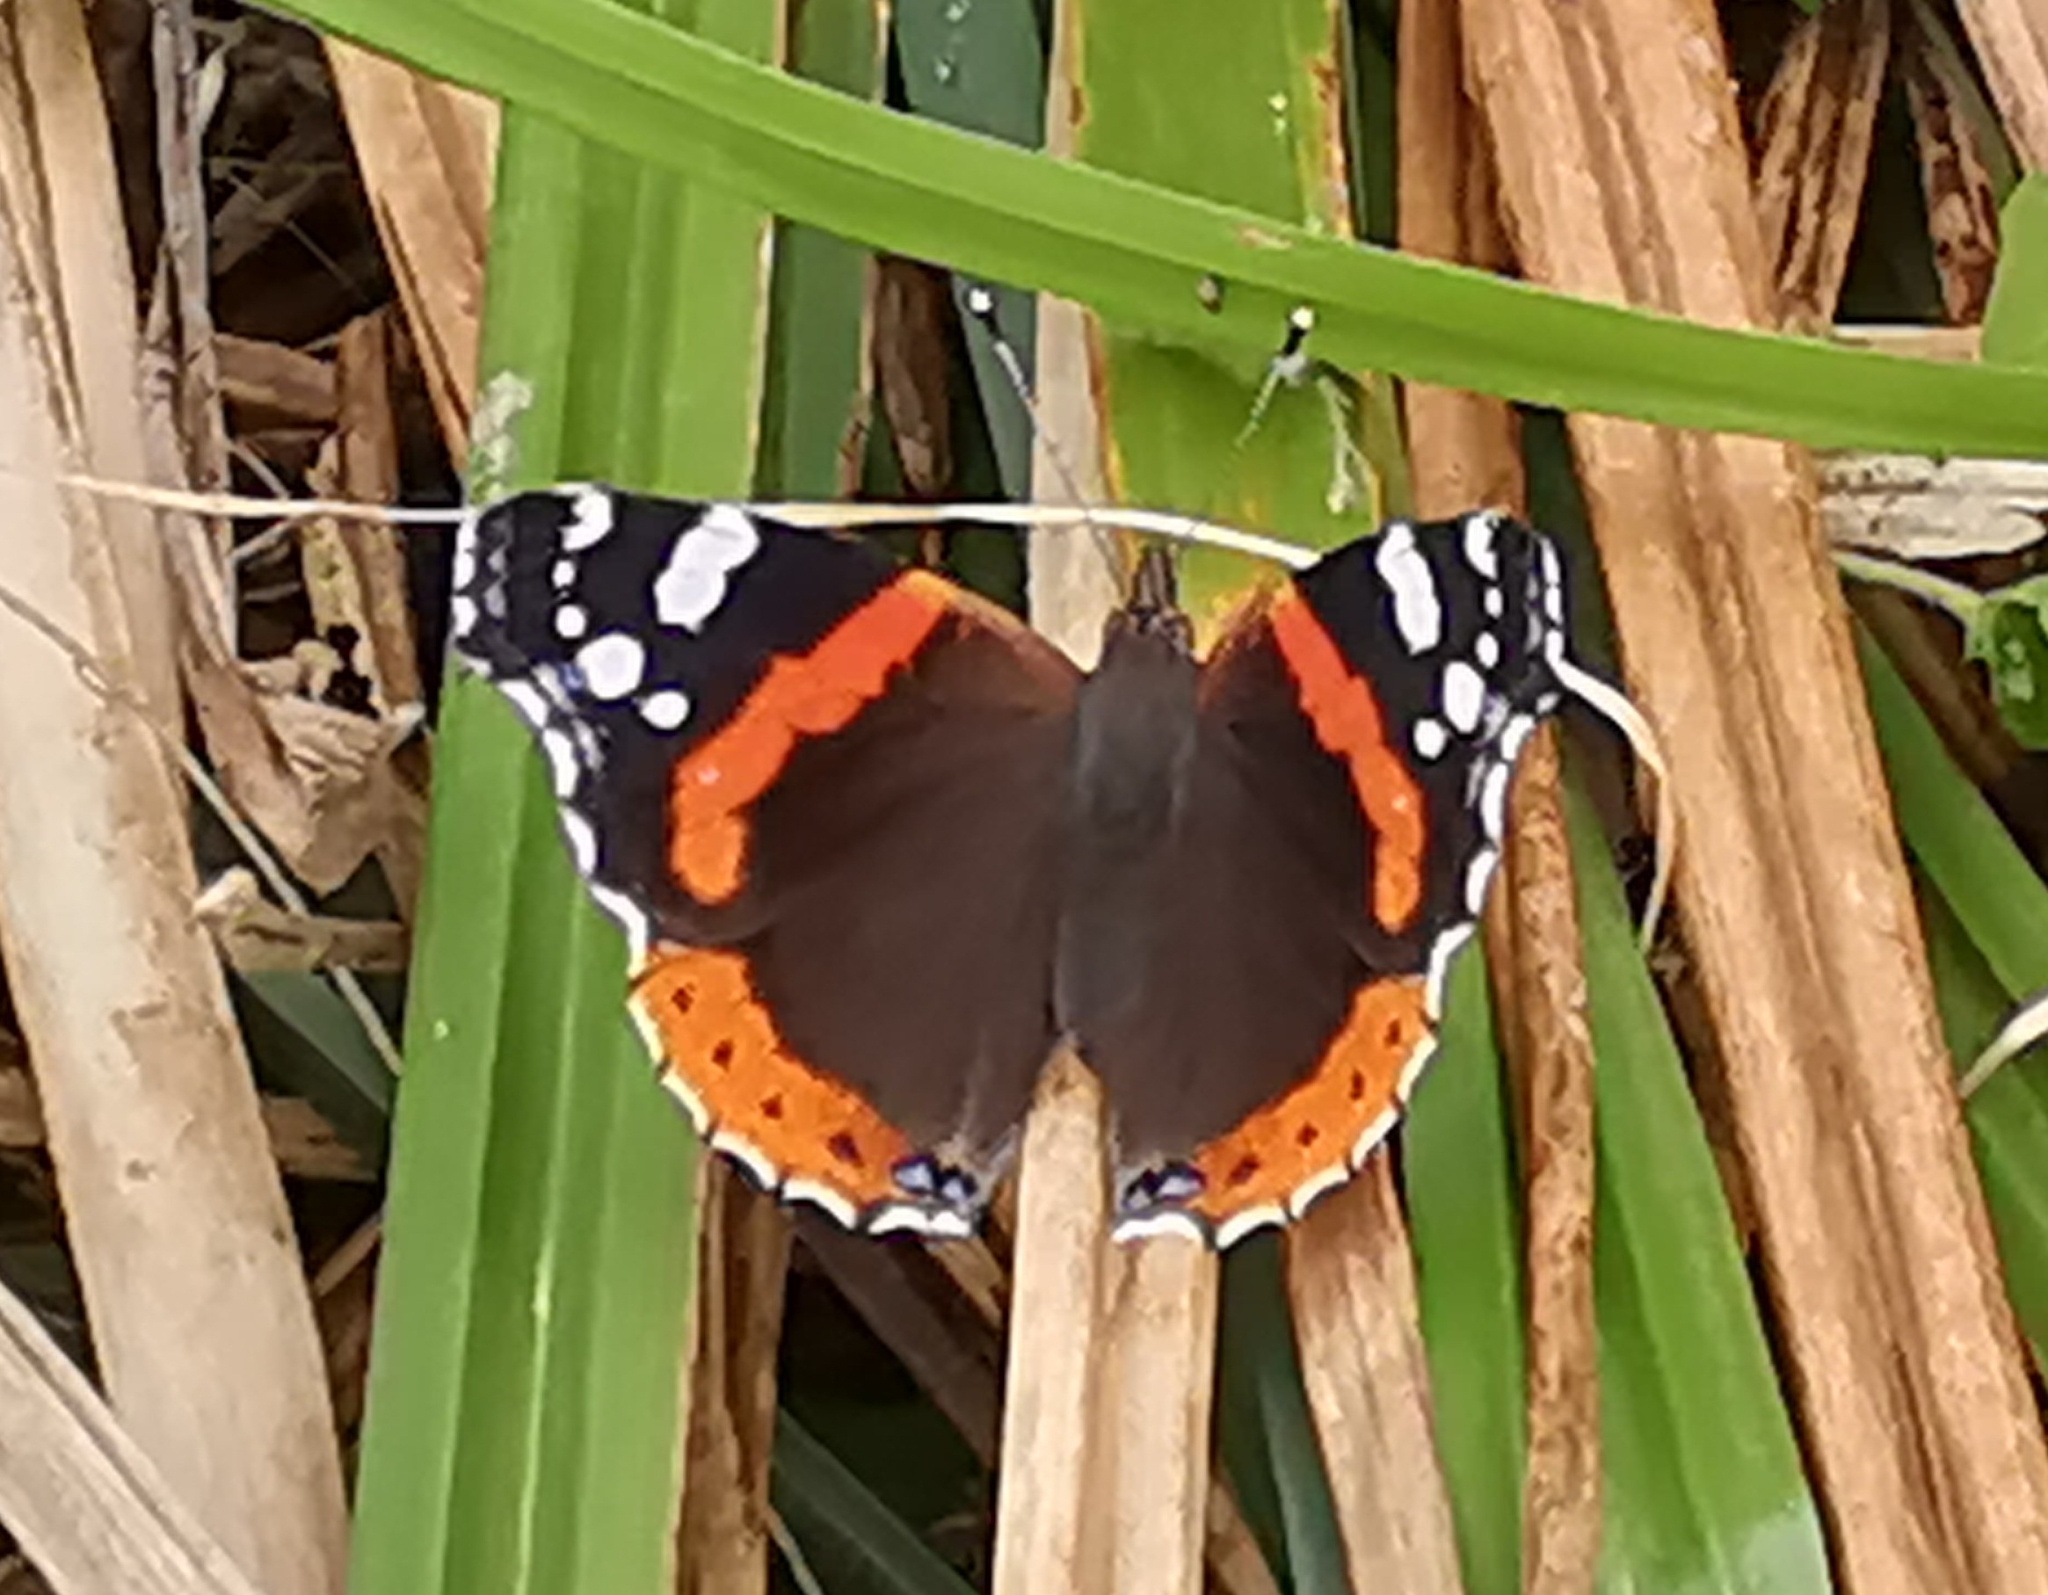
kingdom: Animalia
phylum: Arthropoda
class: Insecta
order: Lepidoptera
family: Nymphalidae
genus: Vanessa
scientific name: Vanessa atalanta
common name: Red admiral
